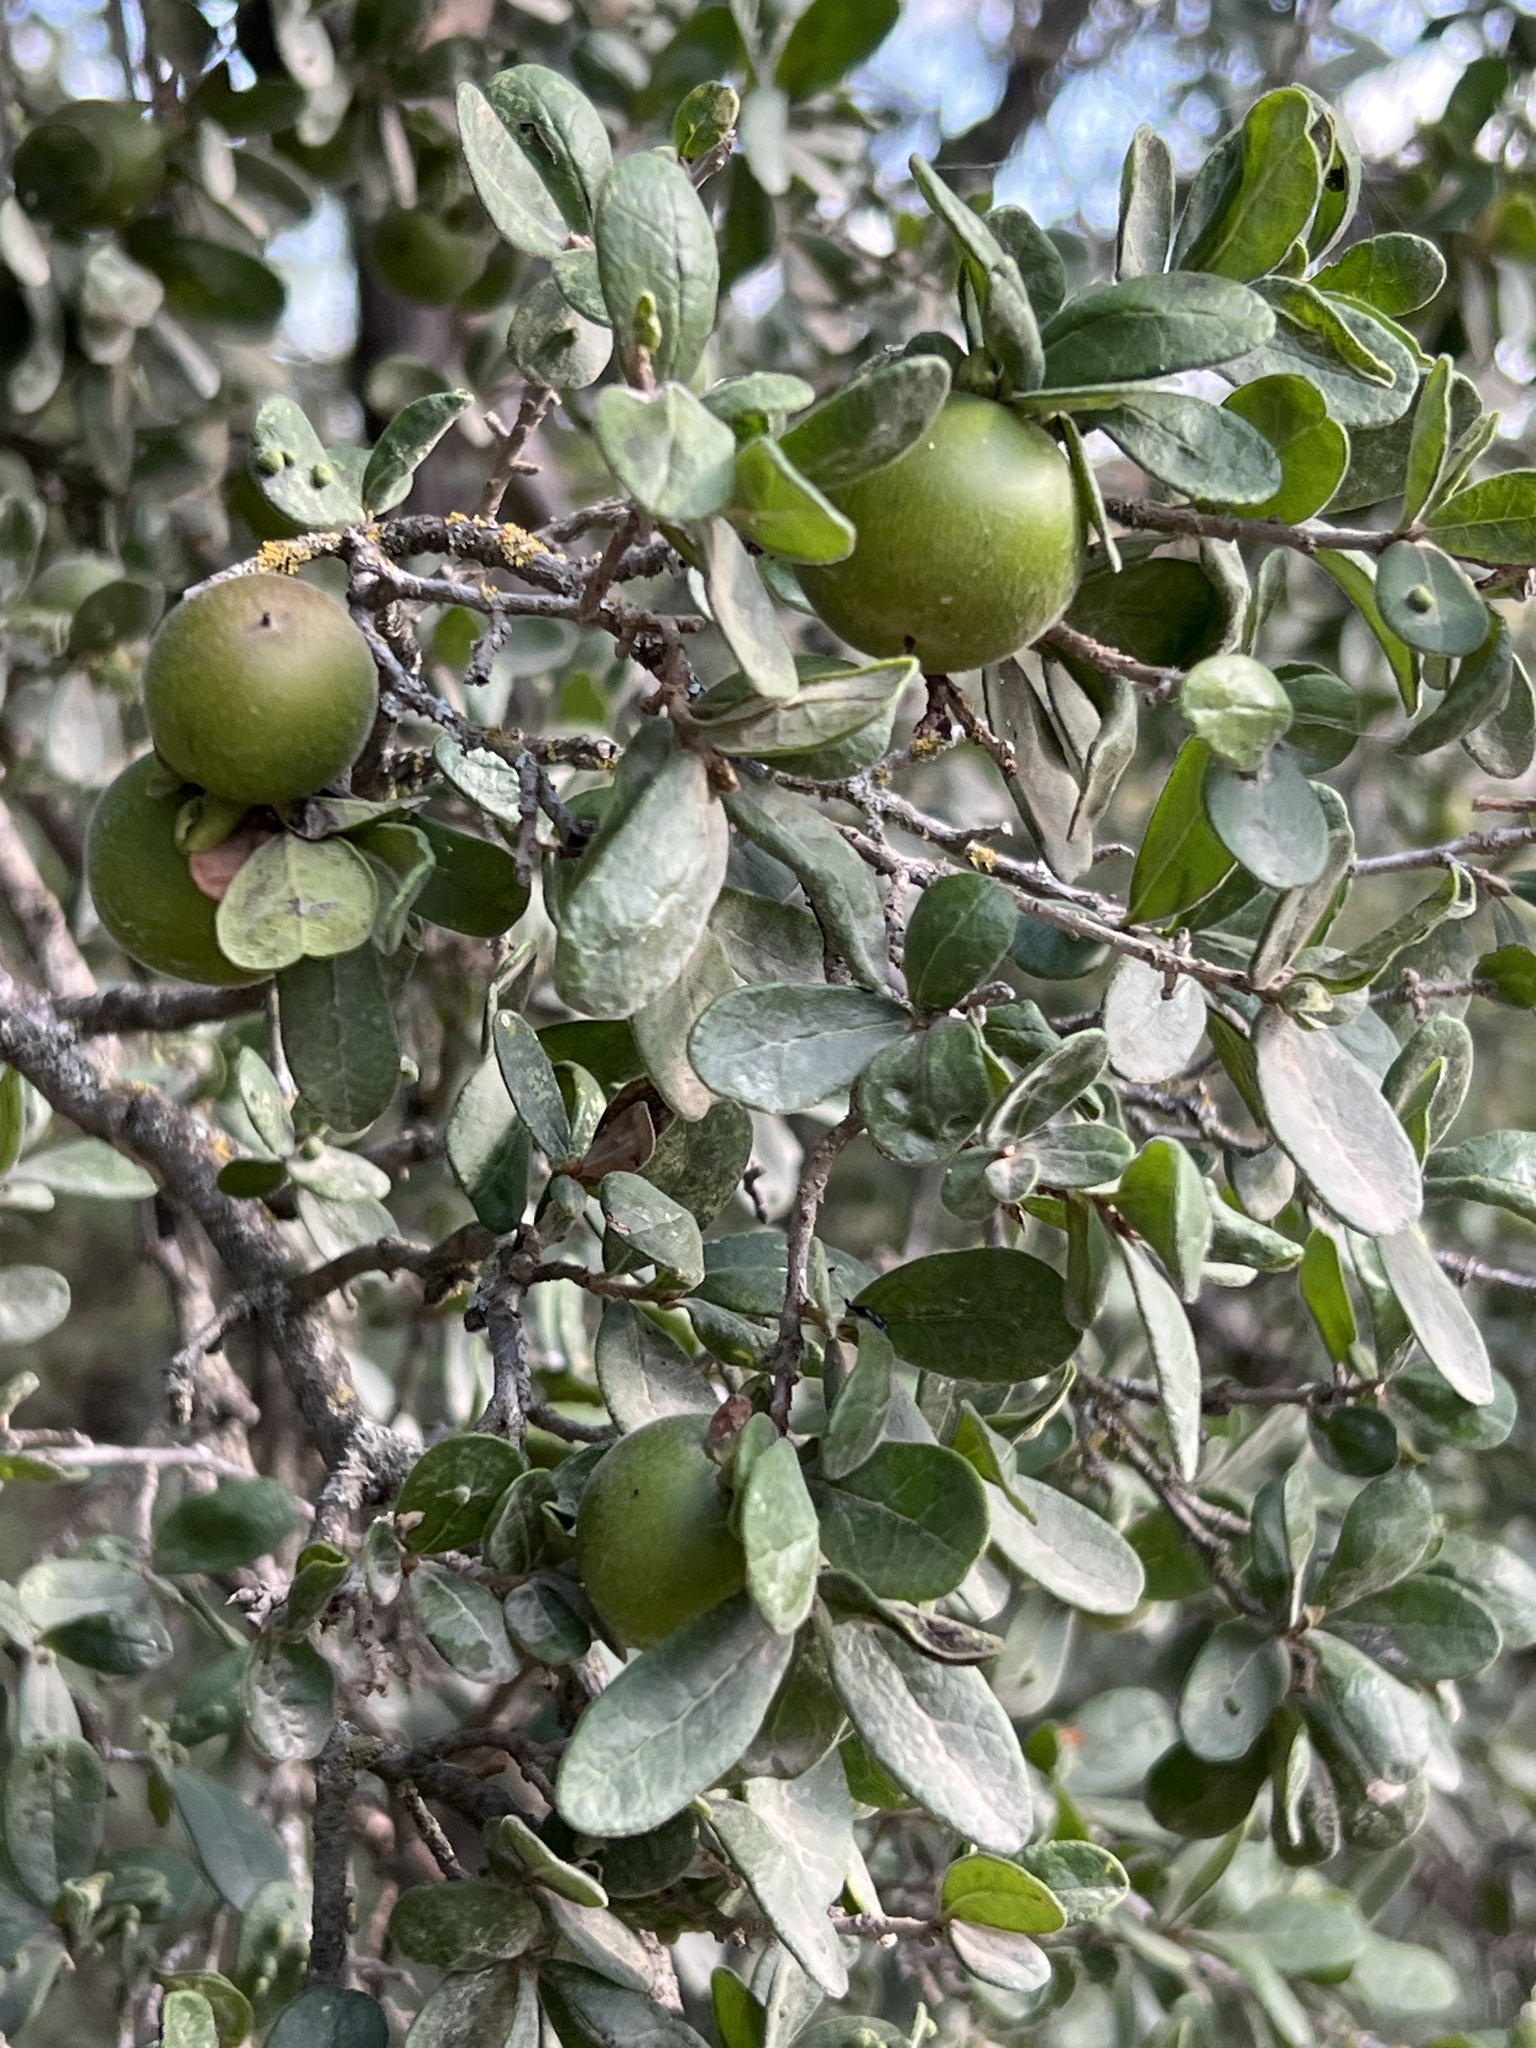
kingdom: Plantae
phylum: Tracheophyta
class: Magnoliopsida
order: Ericales
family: Ebenaceae
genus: Diospyros
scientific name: Diospyros texana
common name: Texas persimmon
